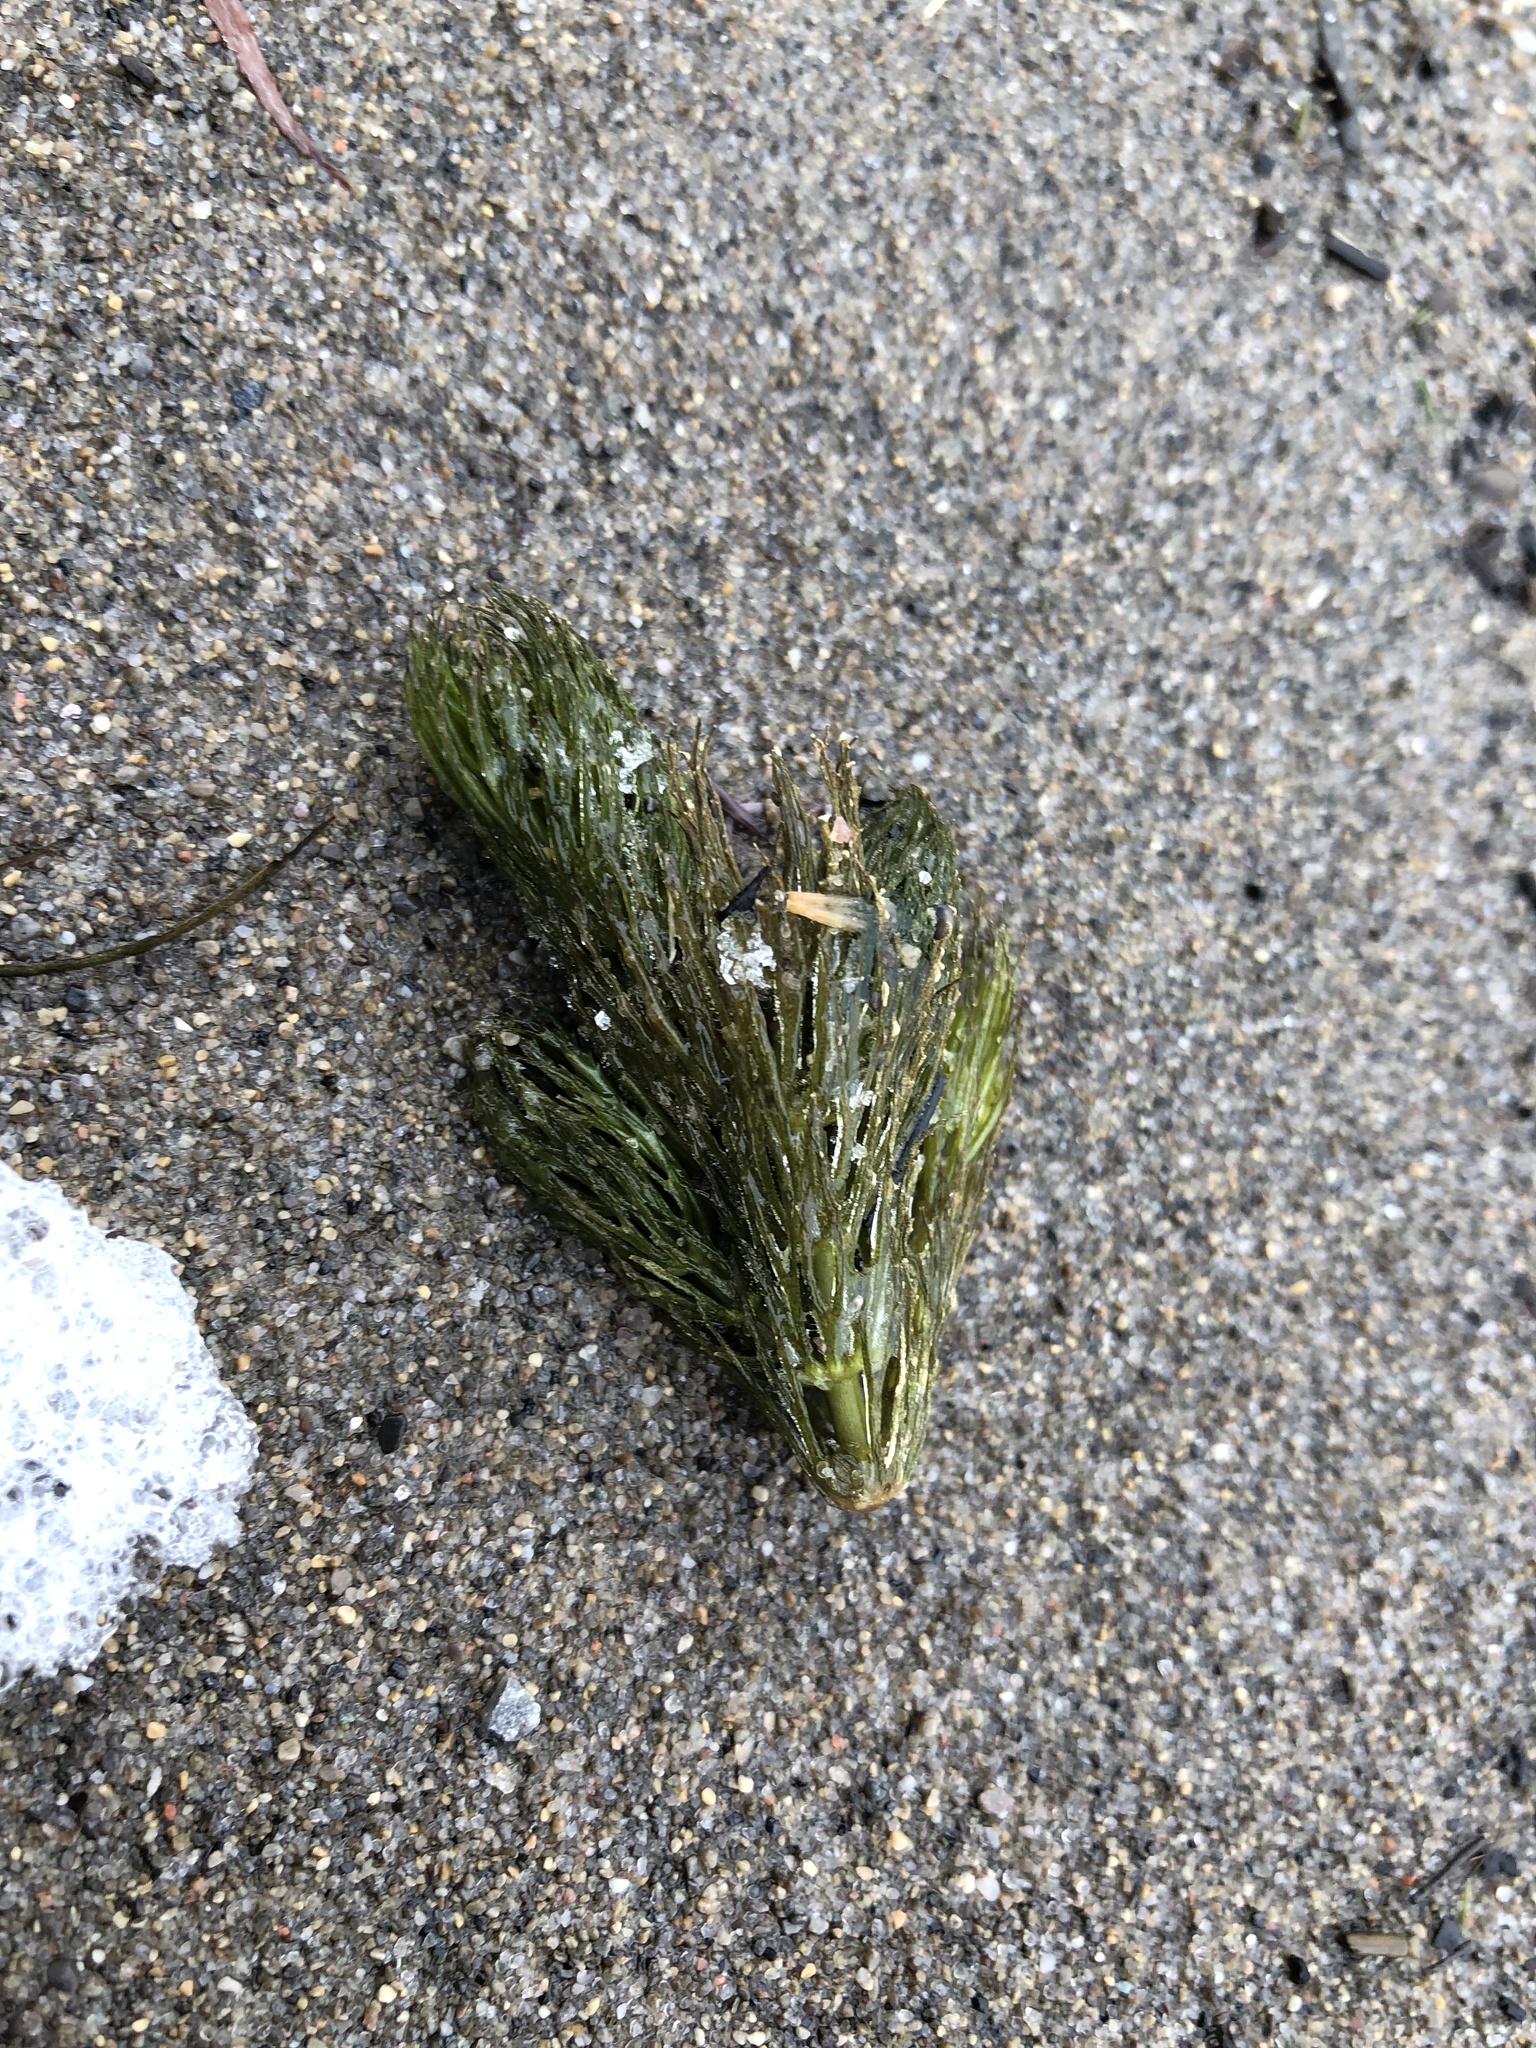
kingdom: Plantae
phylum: Tracheophyta
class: Magnoliopsida
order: Ceratophyllales
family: Ceratophyllaceae
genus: Ceratophyllum
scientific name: Ceratophyllum demersum
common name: Rigid hornwort
